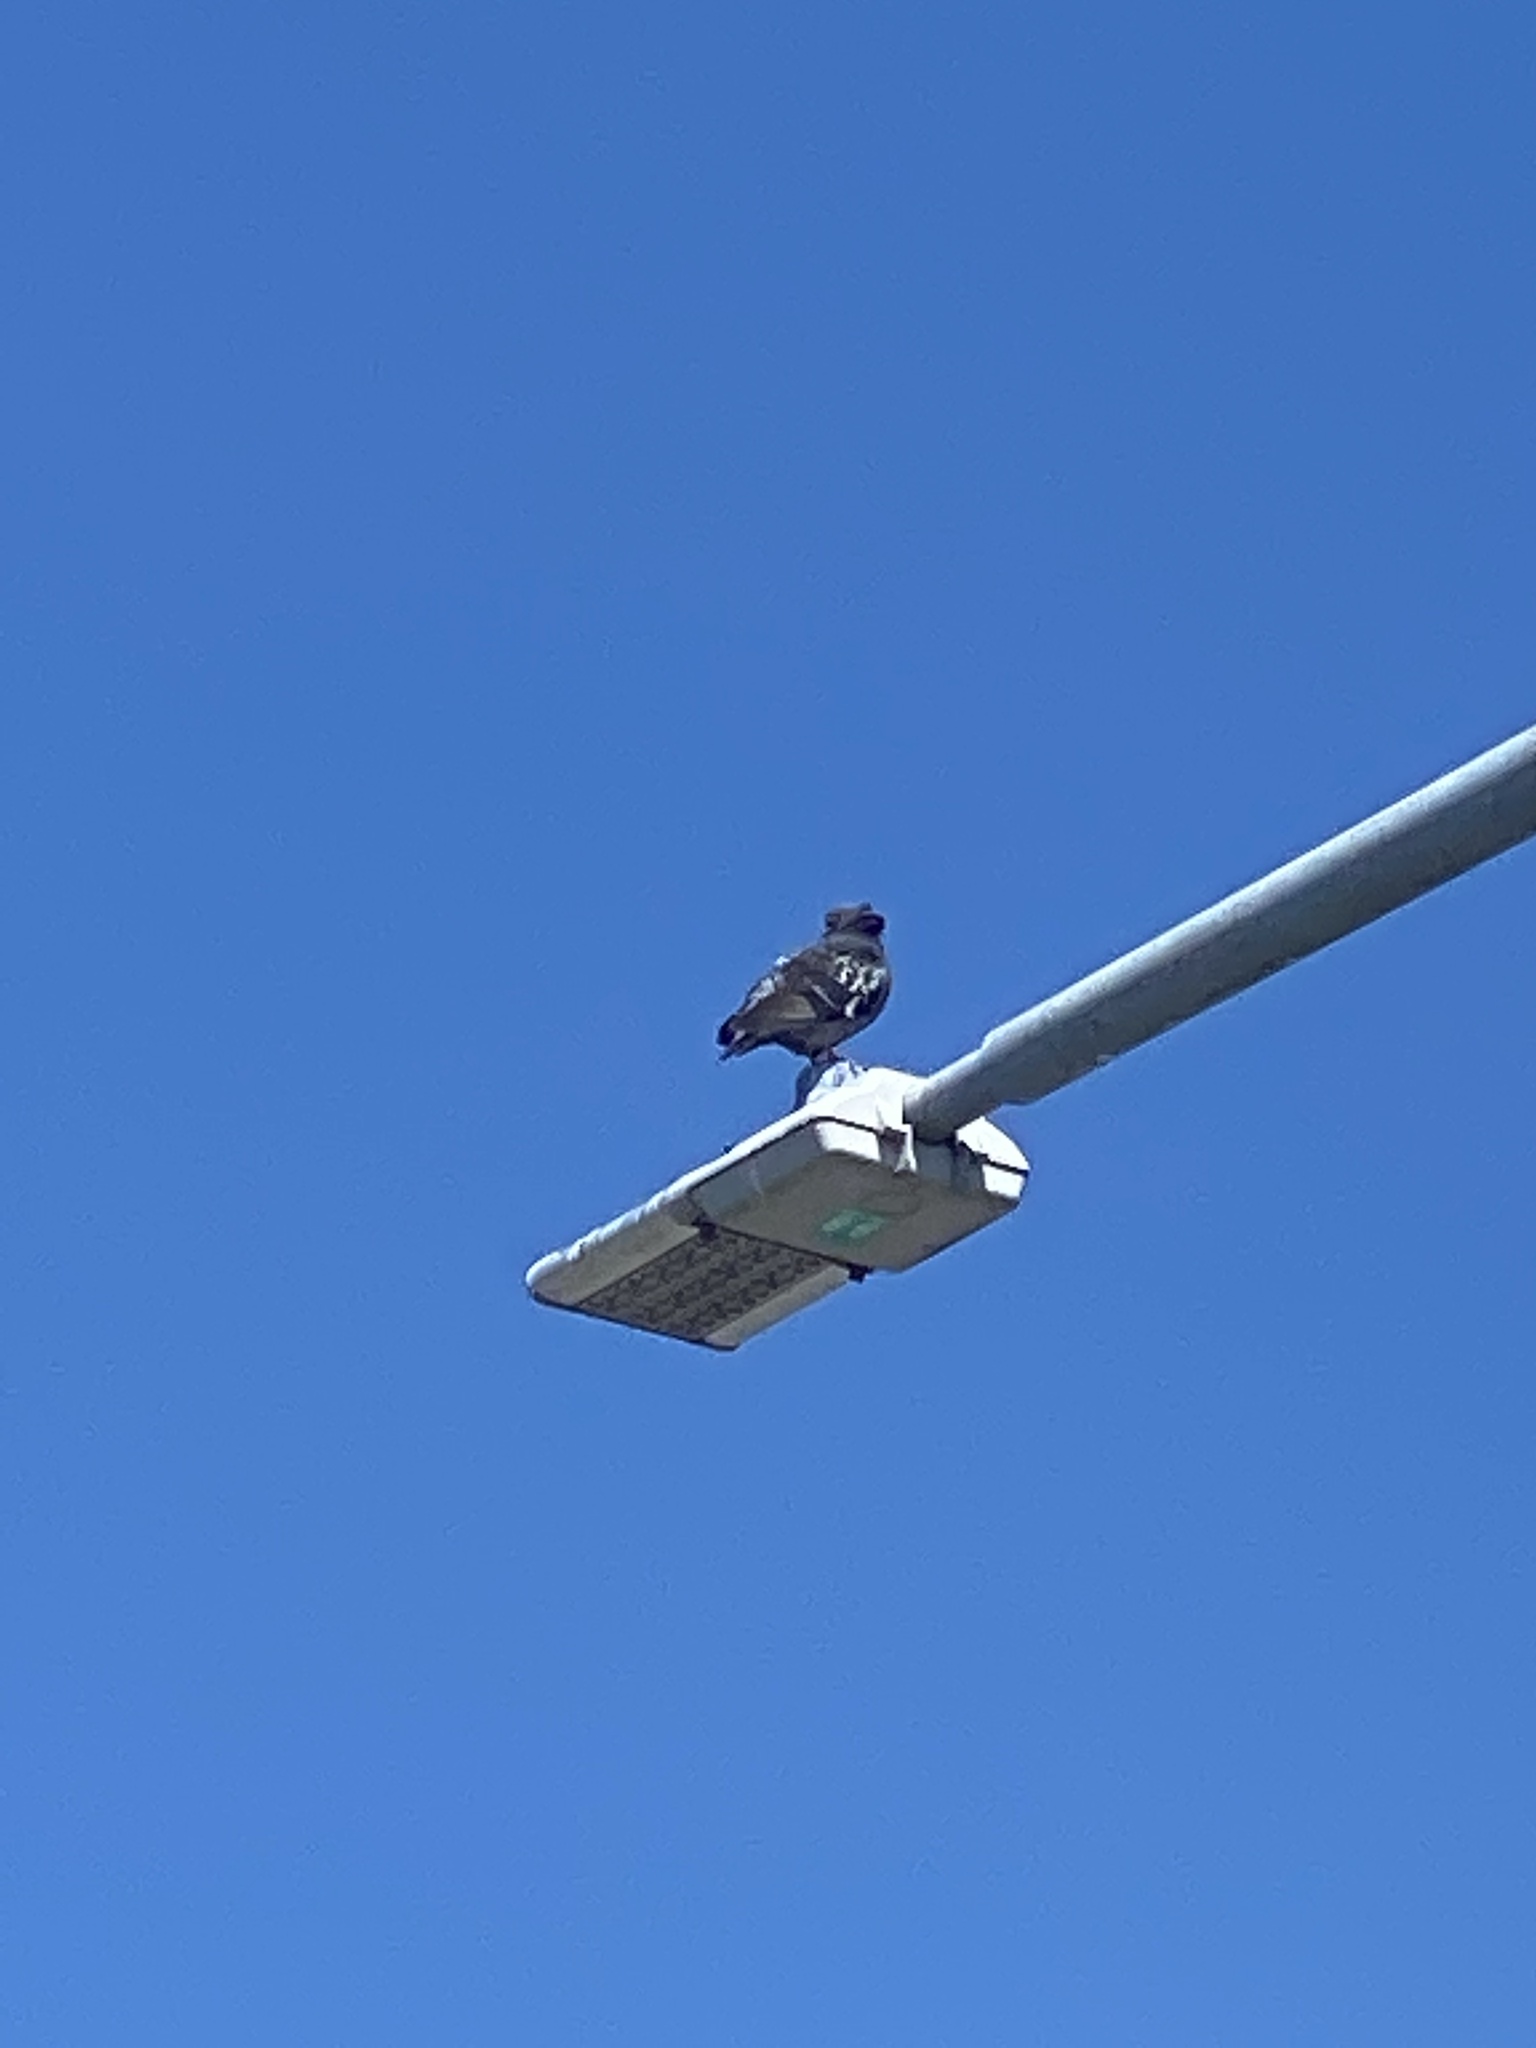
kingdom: Animalia
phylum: Chordata
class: Aves
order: Columbiformes
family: Columbidae
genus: Columba
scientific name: Columba livia
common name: Rock pigeon
